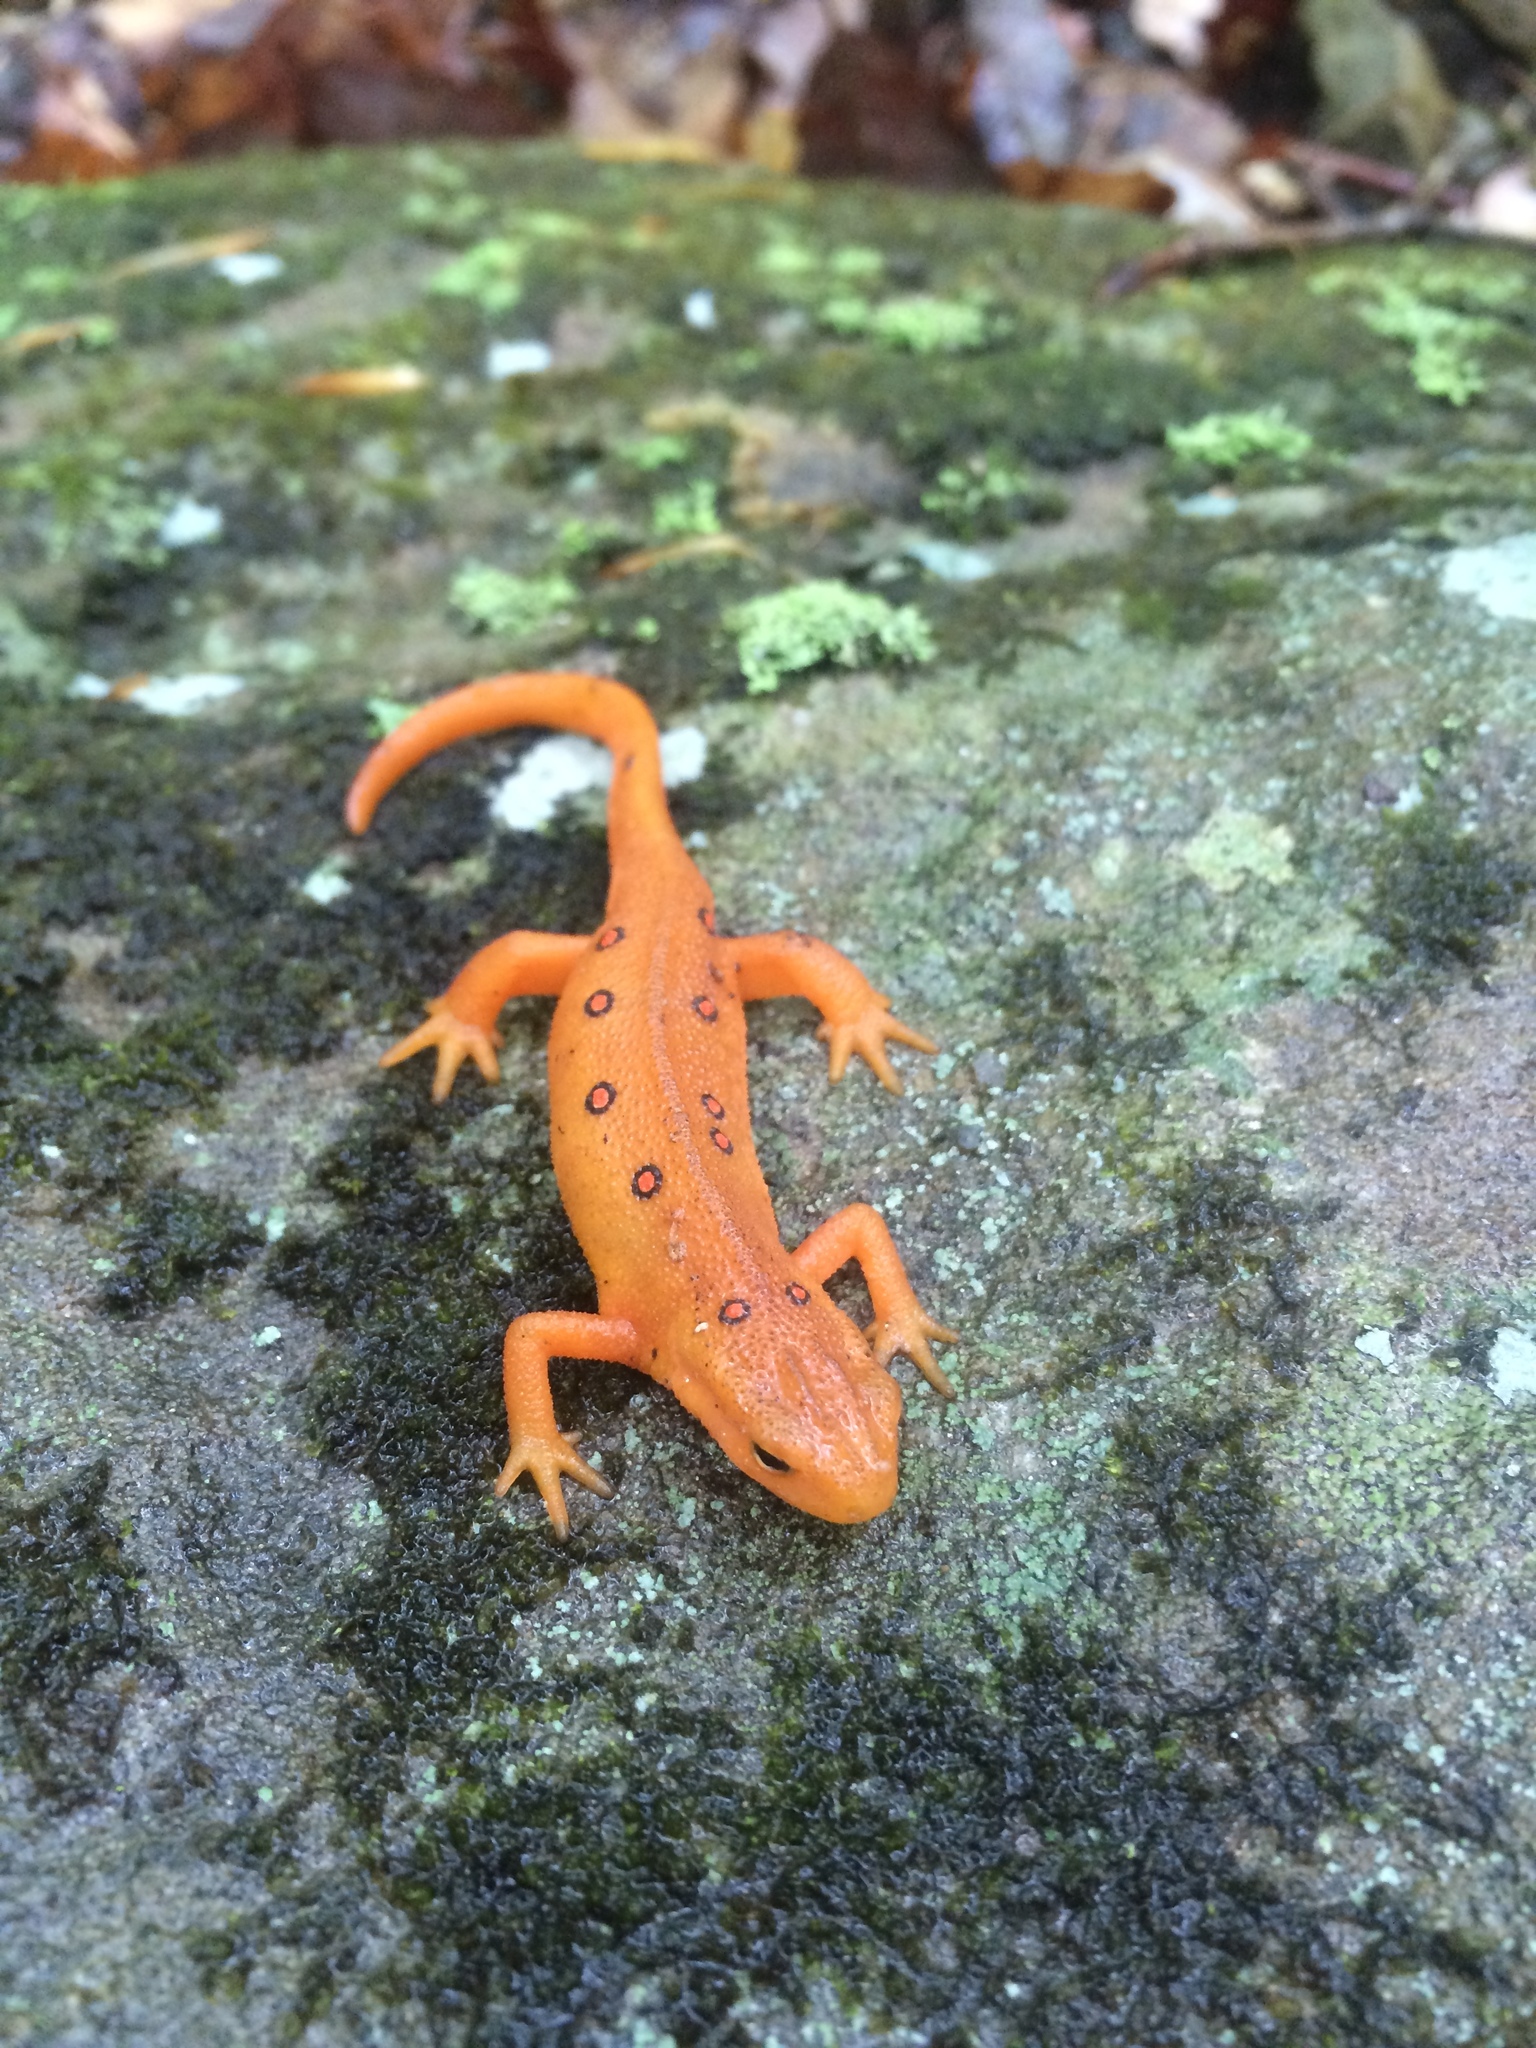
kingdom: Animalia
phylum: Chordata
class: Amphibia
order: Caudata
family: Salamandridae
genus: Notophthalmus
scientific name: Notophthalmus viridescens
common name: Eastern newt
